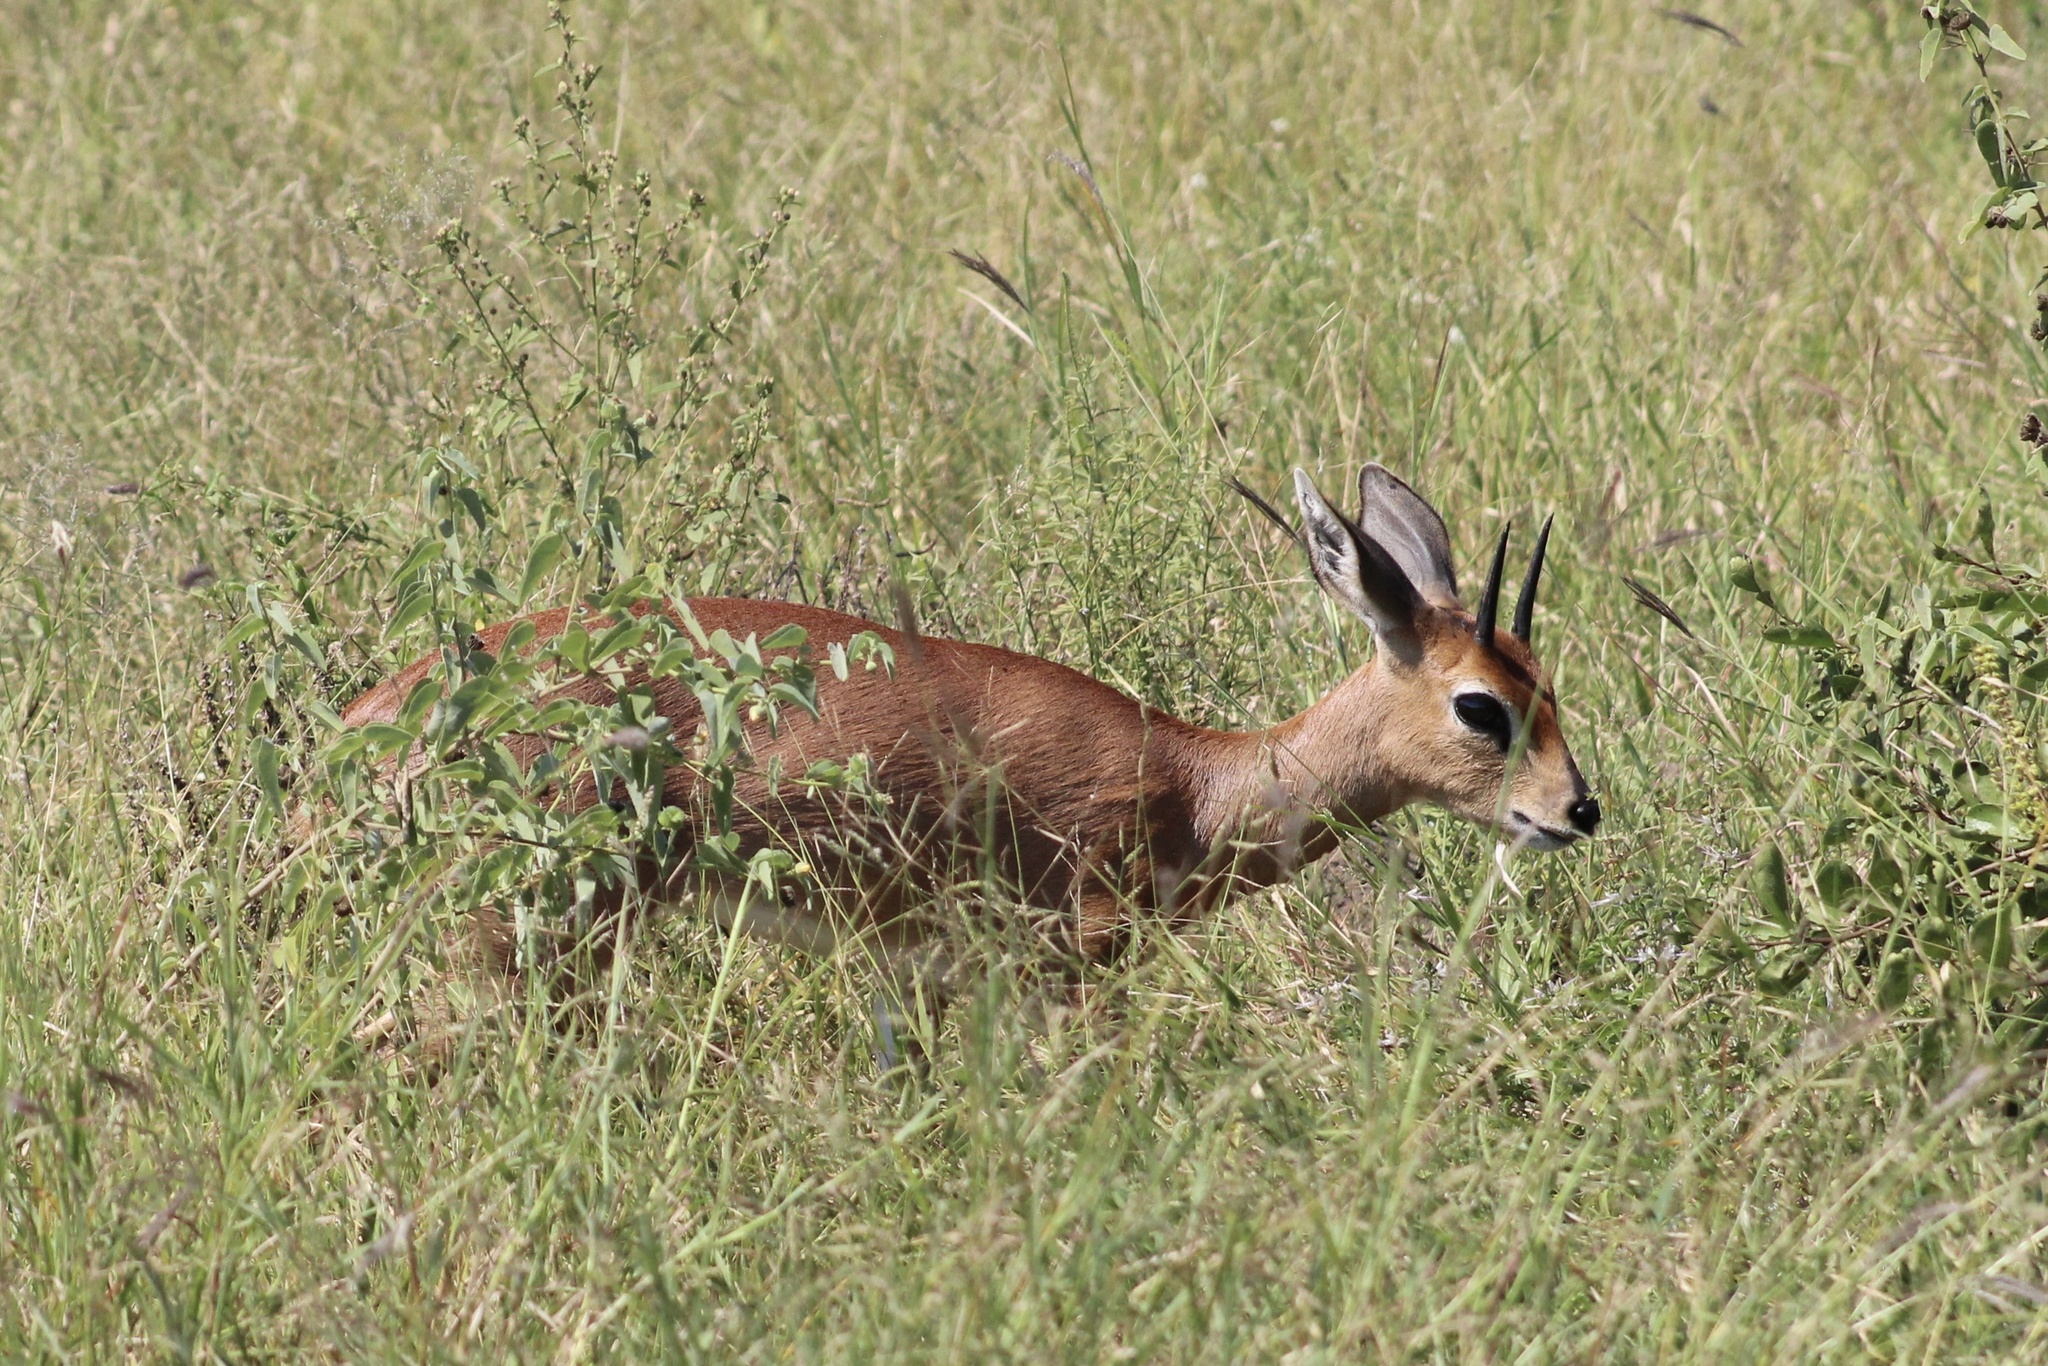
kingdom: Animalia
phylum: Chordata
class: Mammalia
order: Artiodactyla
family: Bovidae
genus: Raphicerus
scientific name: Raphicerus campestris
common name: Steenbok
